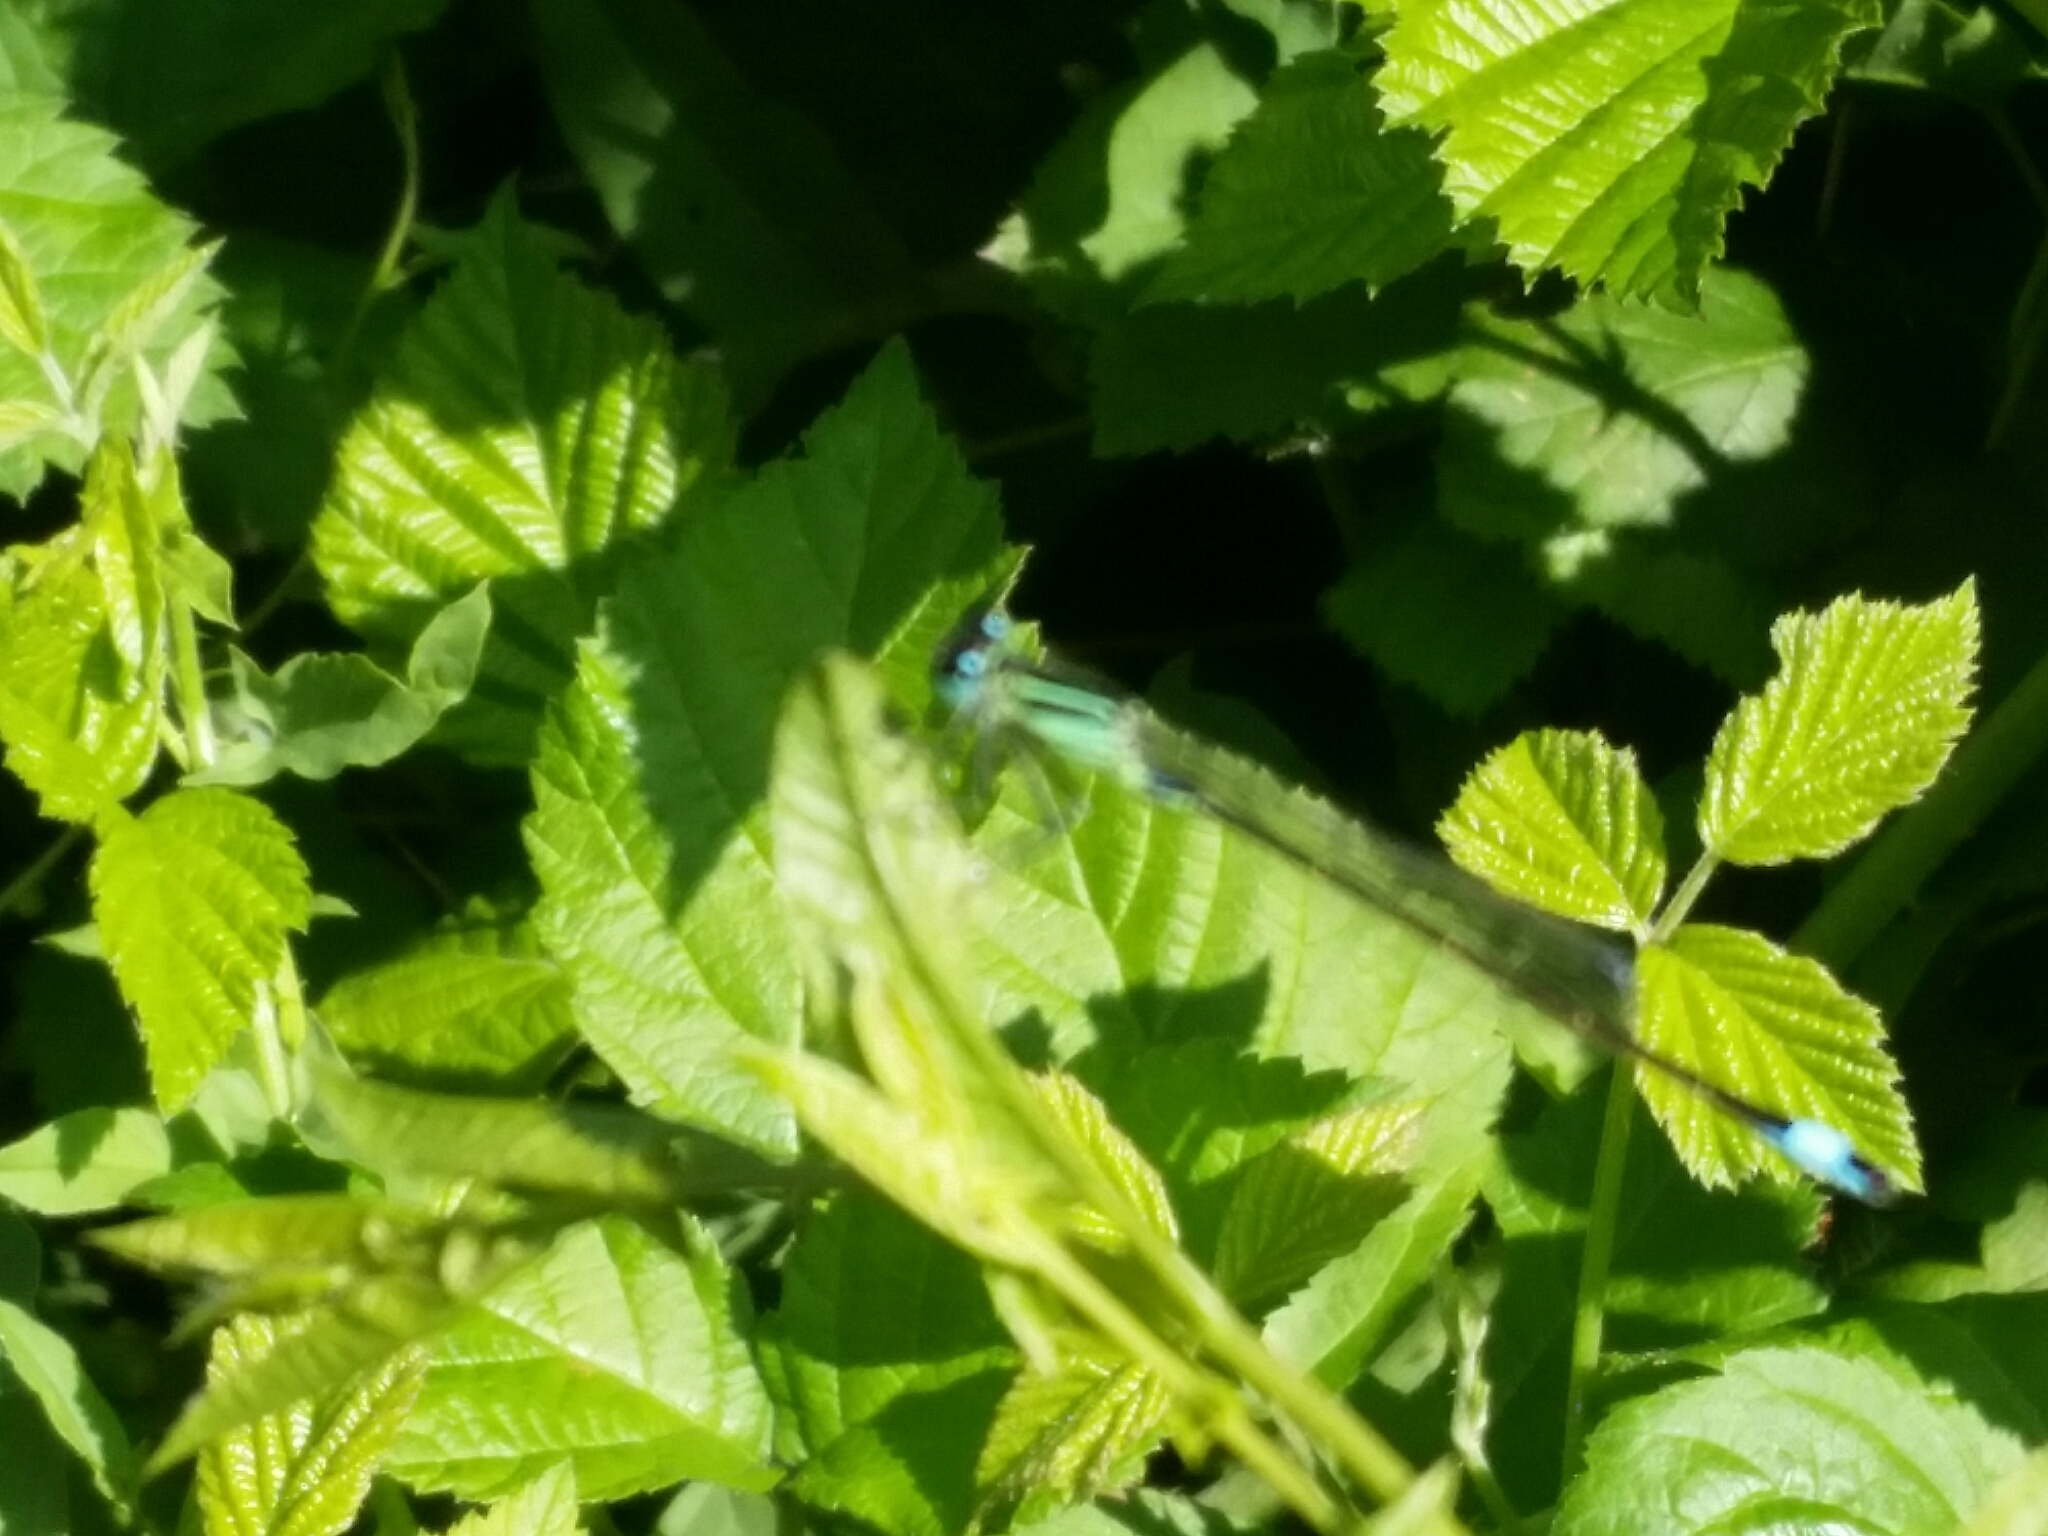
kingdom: Animalia
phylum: Arthropoda
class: Insecta
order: Odonata
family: Coenagrionidae
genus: Ischnura
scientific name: Ischnura elegans
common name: Blue-tailed damselfly
